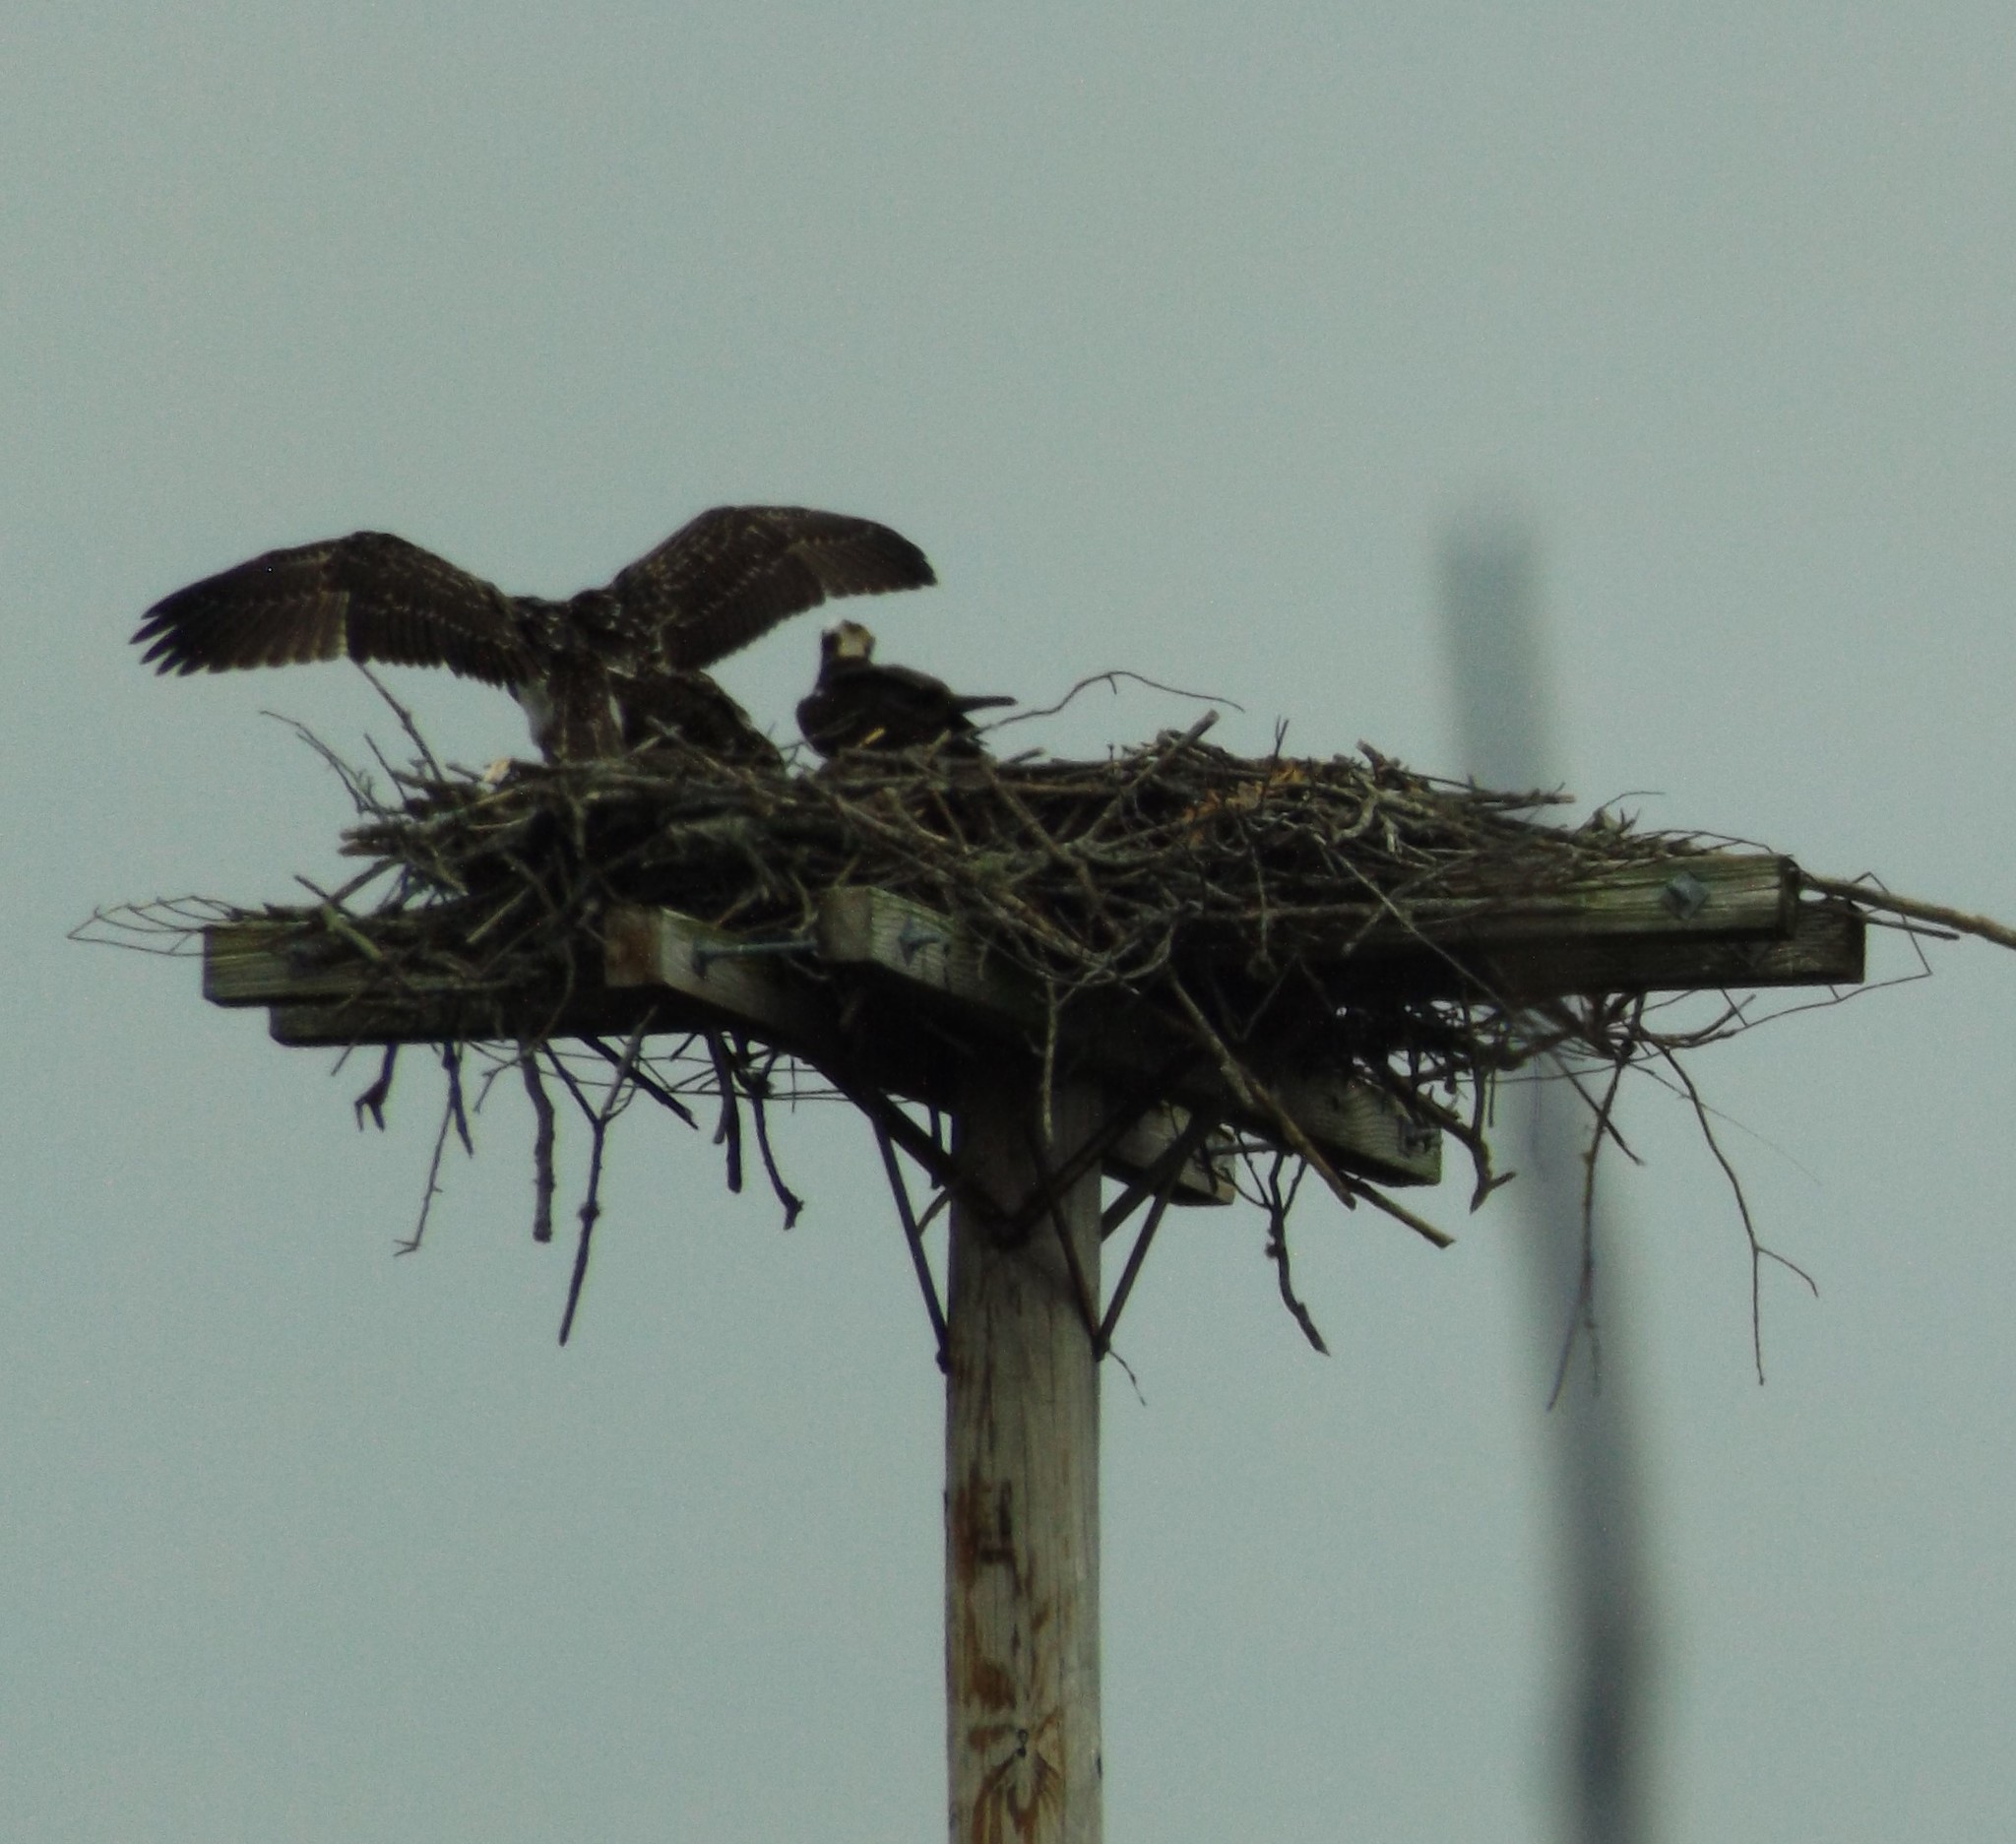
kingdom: Animalia
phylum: Chordata
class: Aves
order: Accipitriformes
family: Pandionidae
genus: Pandion
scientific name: Pandion haliaetus
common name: Osprey
